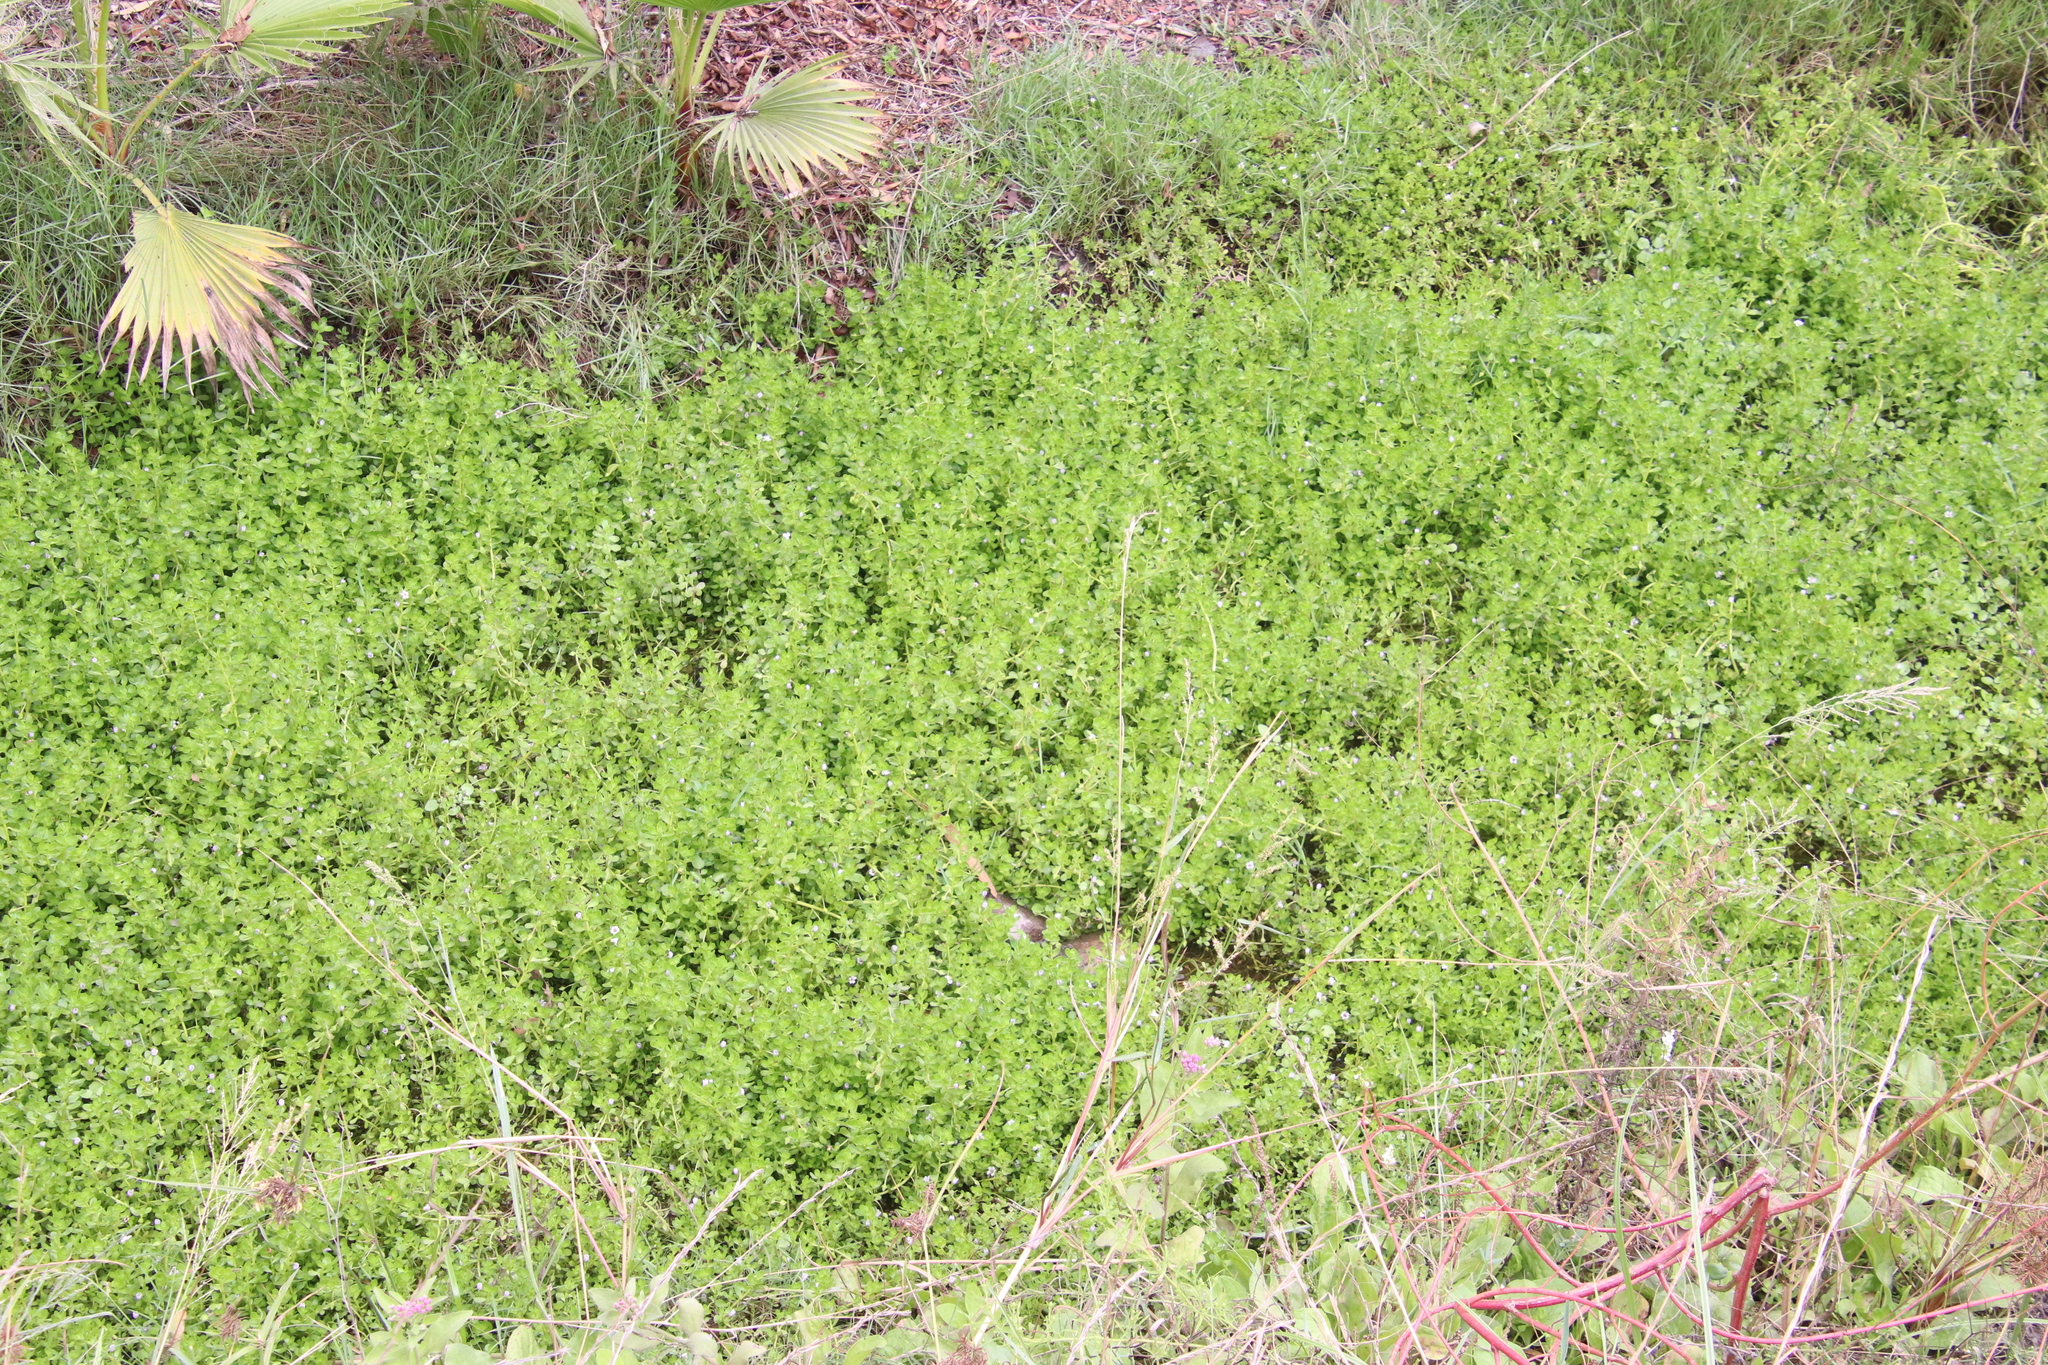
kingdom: Plantae
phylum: Tracheophyta
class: Magnoliopsida
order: Lamiales
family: Plantaginaceae
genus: Bacopa
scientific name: Bacopa monnieri
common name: Indian-pennywort
